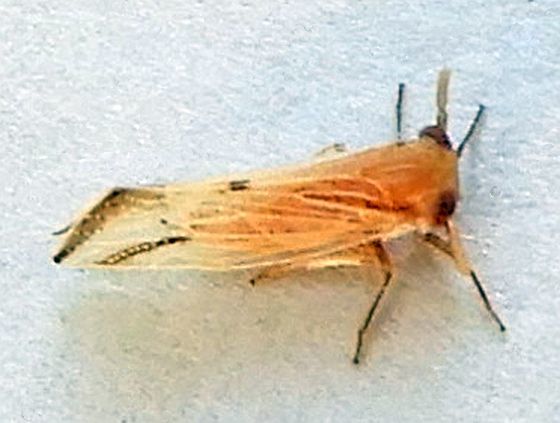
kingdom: Animalia
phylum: Arthropoda
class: Insecta
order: Hemiptera
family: Delphacidae
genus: Bostaera
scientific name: Bostaera nasuta
